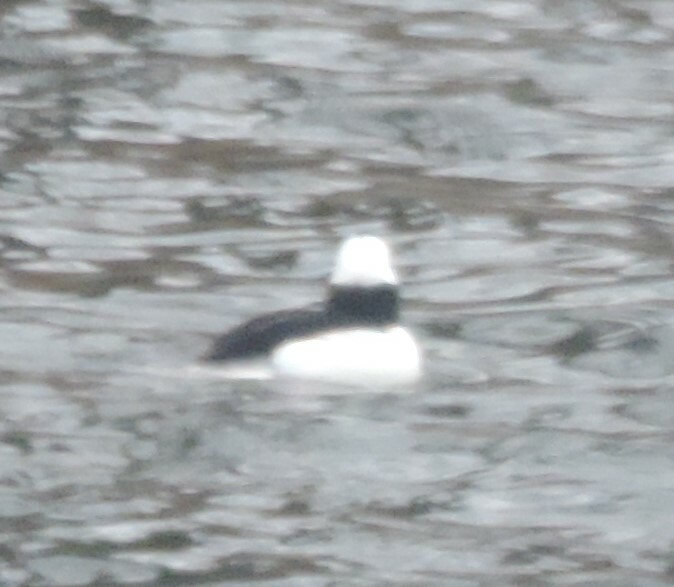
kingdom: Animalia
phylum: Chordata
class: Aves
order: Anseriformes
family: Anatidae
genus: Bucephala
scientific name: Bucephala albeola
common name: Bufflehead
